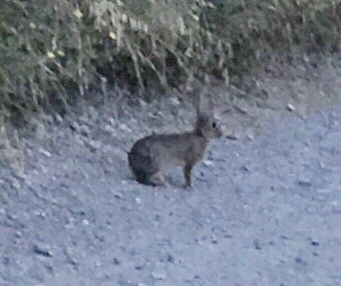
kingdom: Animalia
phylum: Chordata
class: Mammalia
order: Lagomorpha
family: Leporidae
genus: Oryctolagus
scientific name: Oryctolagus cuniculus
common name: European rabbit
